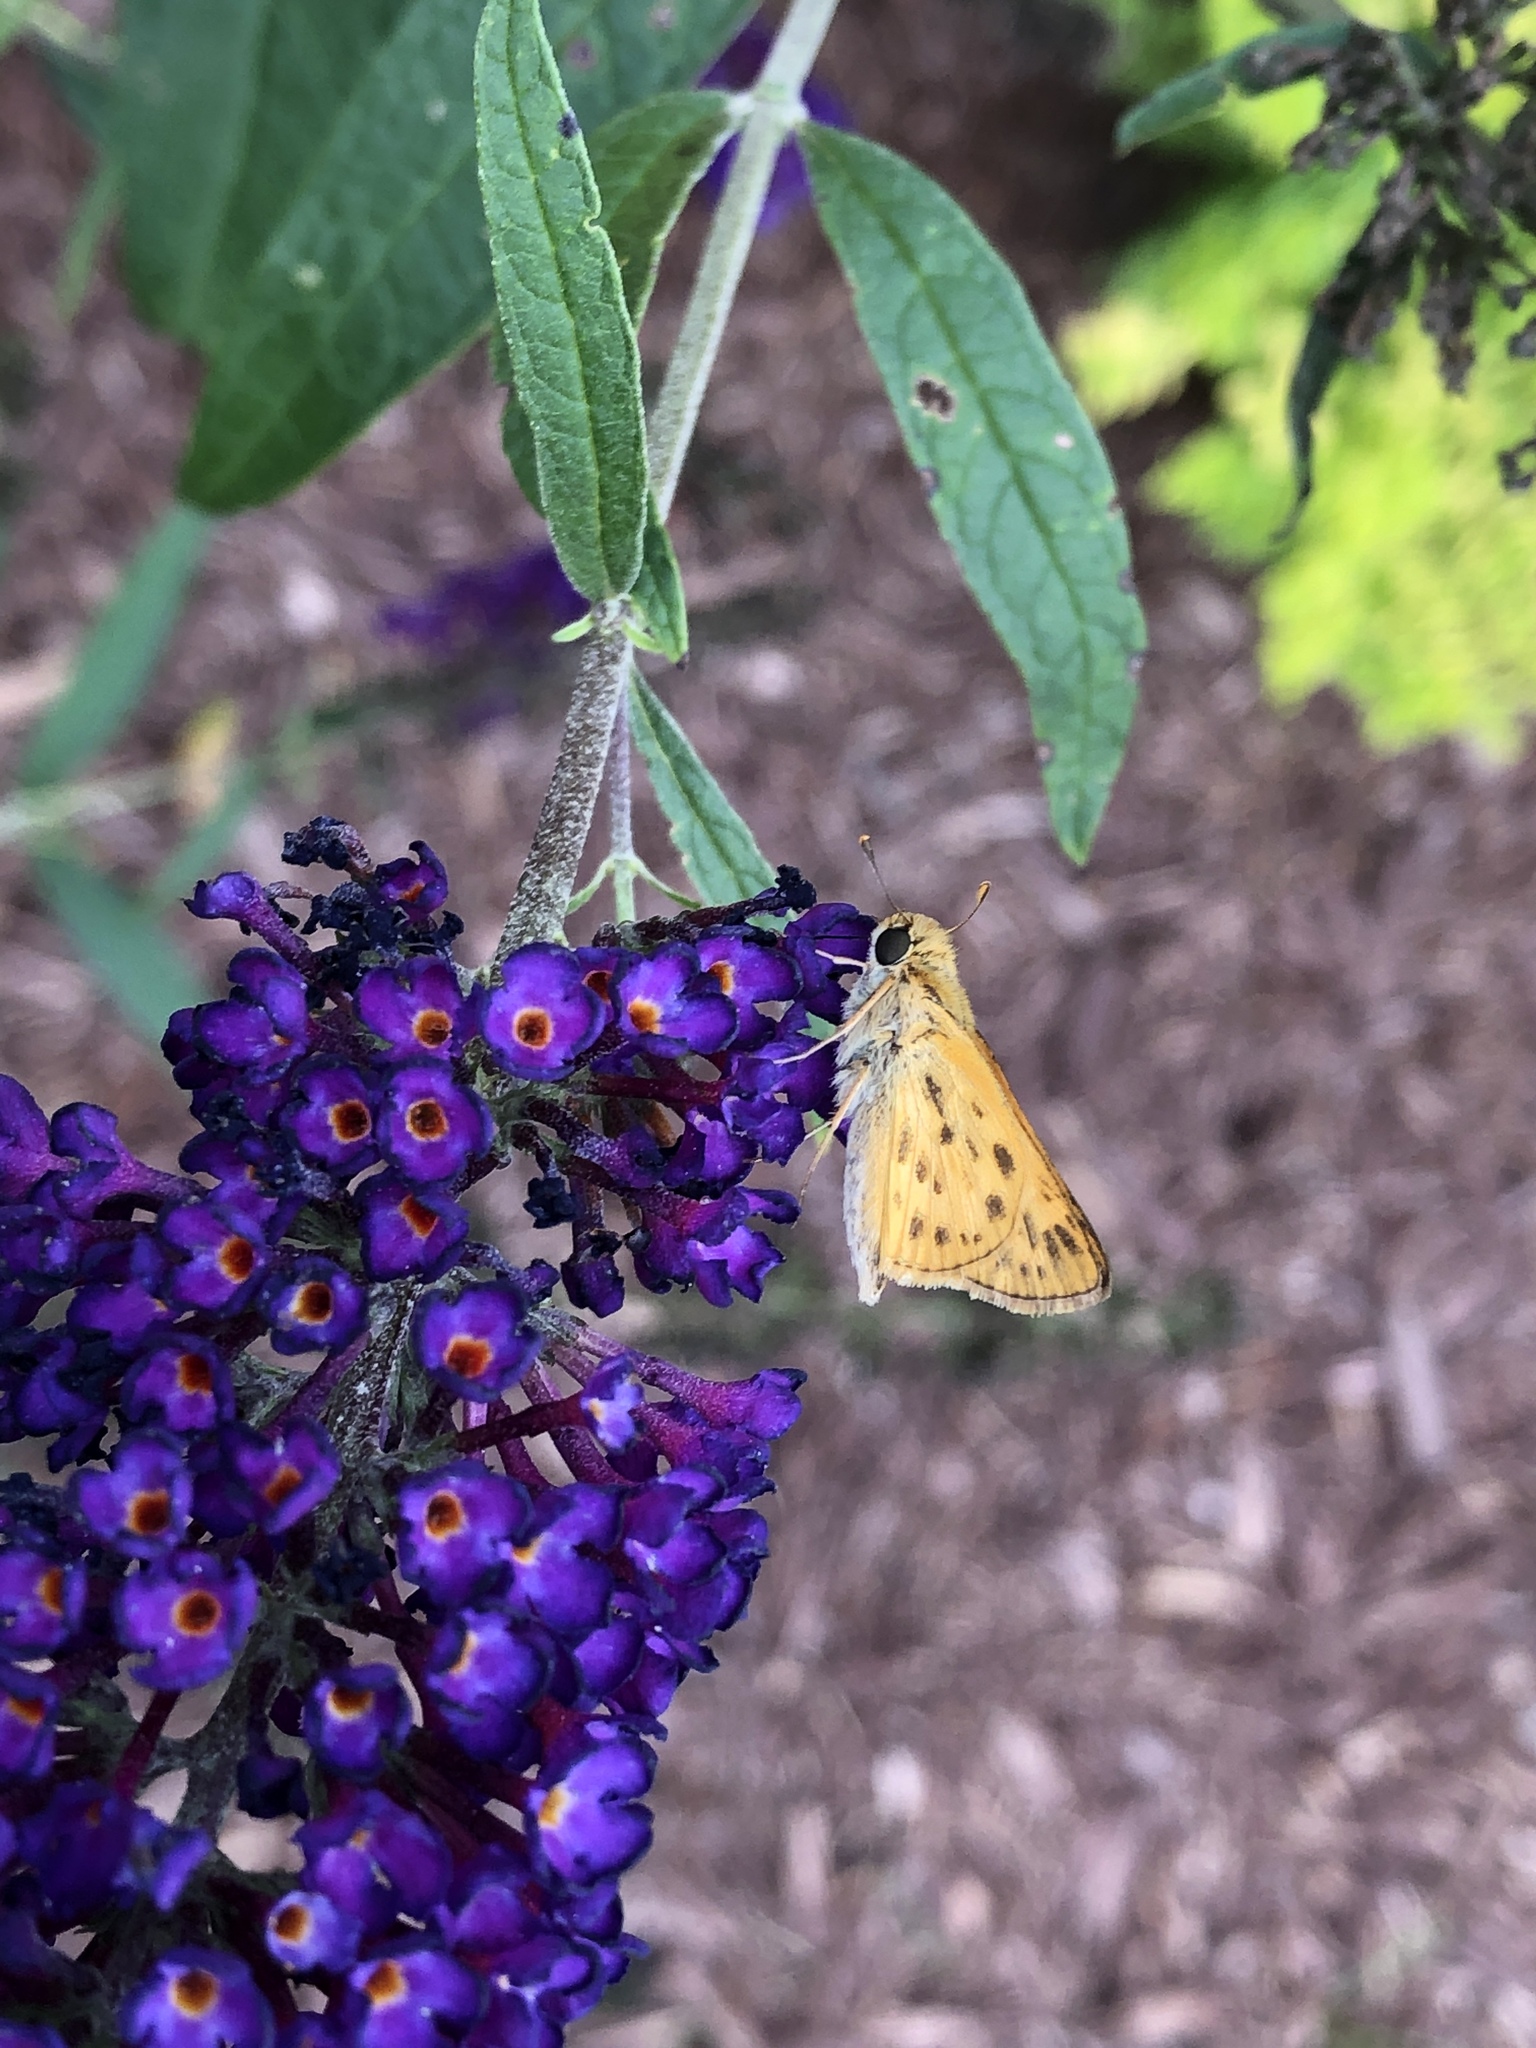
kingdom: Animalia
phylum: Arthropoda
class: Insecta
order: Lepidoptera
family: Hesperiidae
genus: Hylephila
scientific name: Hylephila phyleus
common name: Fiery skipper
